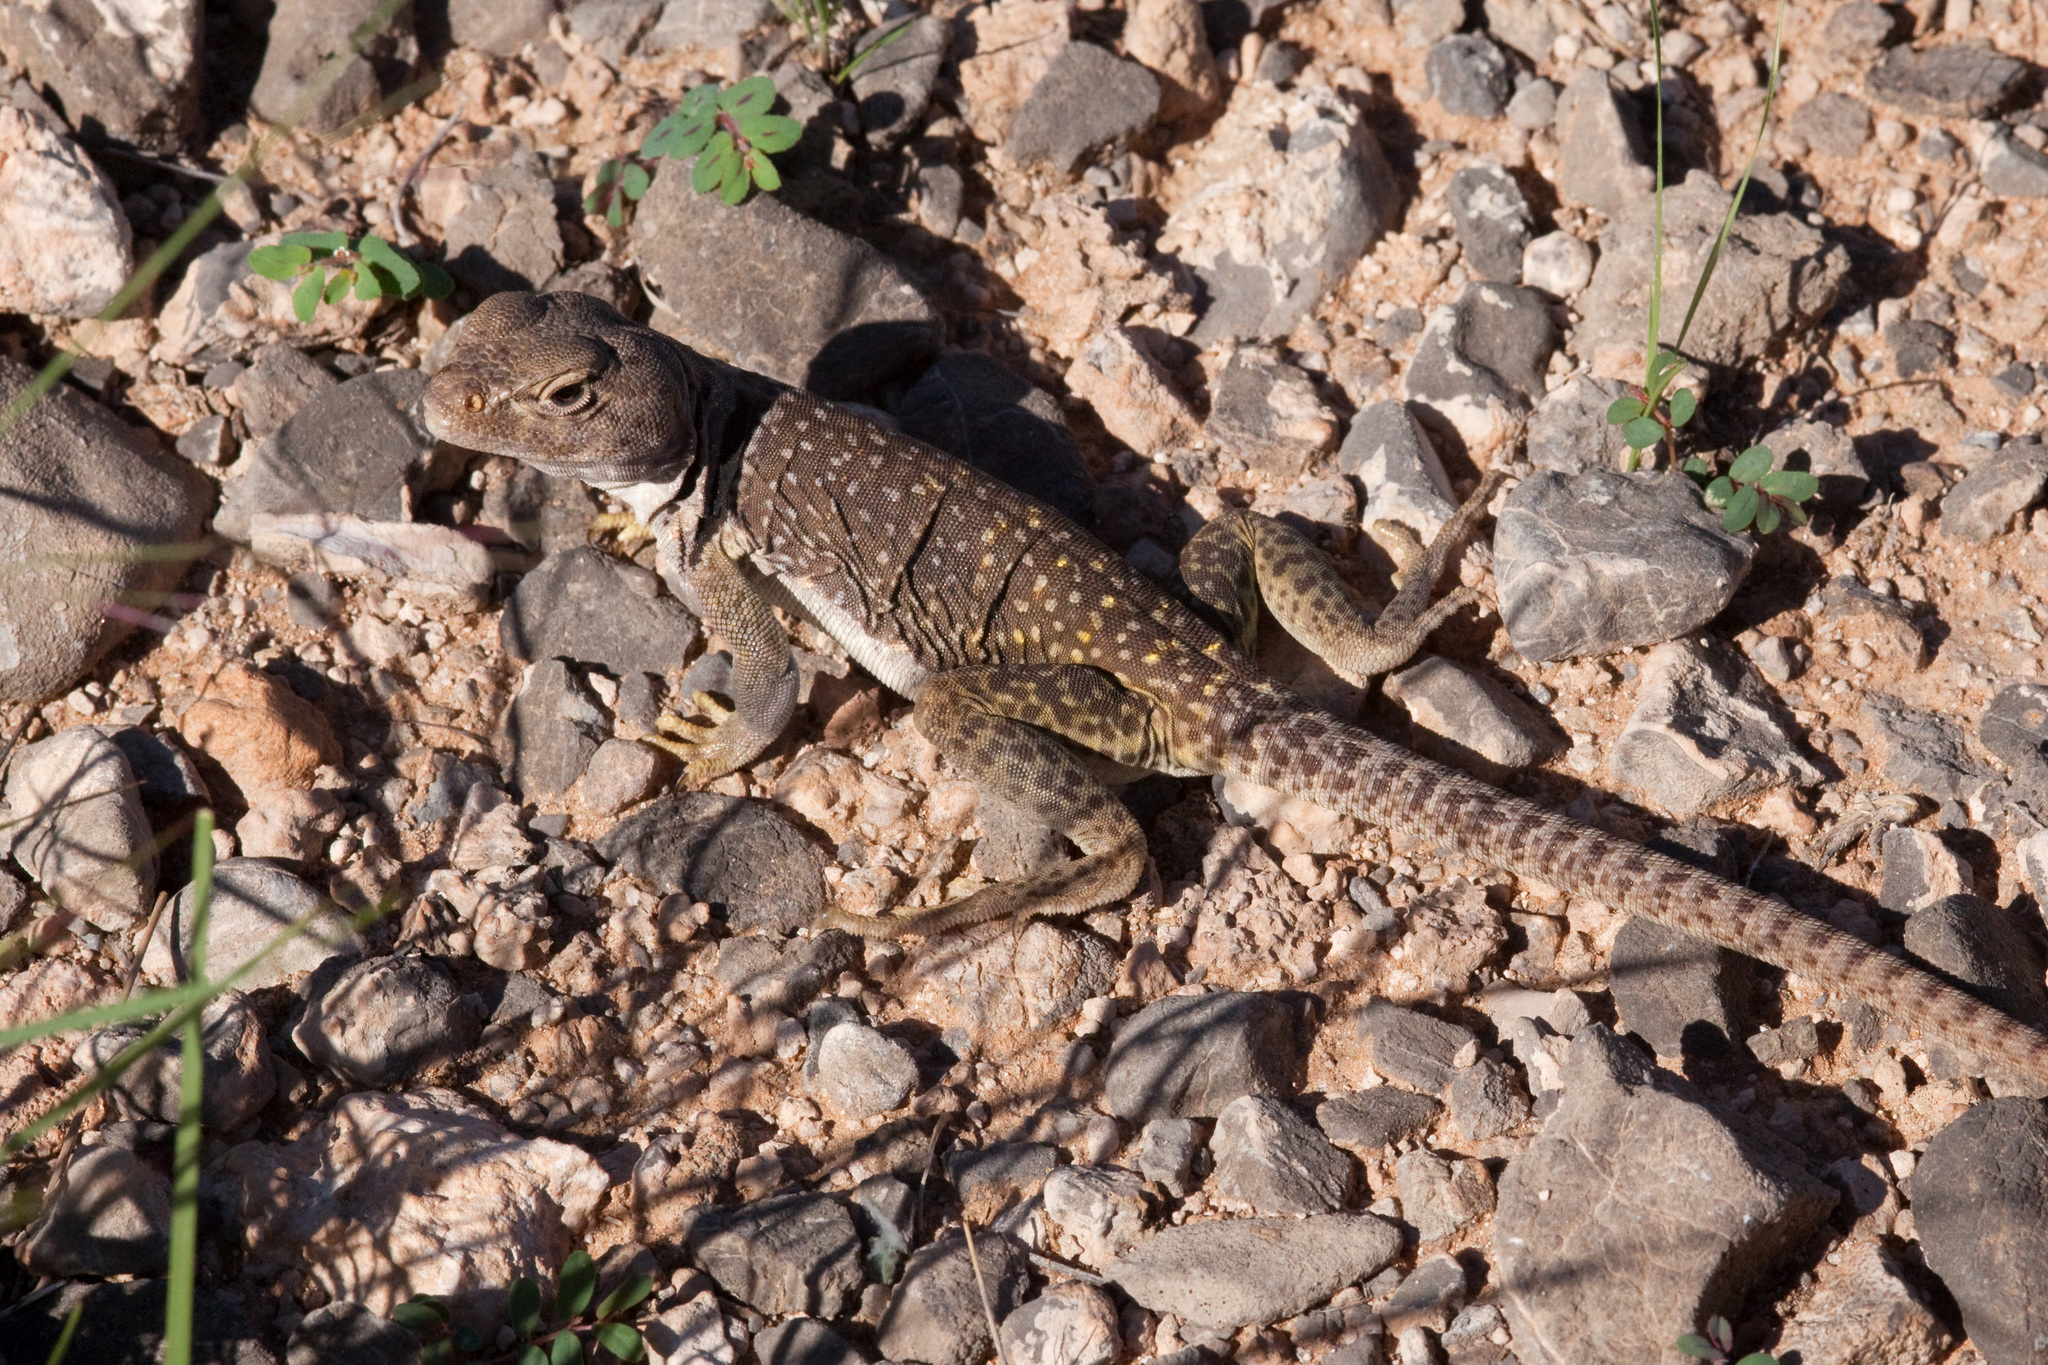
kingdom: Animalia
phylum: Chordata
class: Squamata
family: Crotaphytidae
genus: Crotaphytus
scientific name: Crotaphytus collaris
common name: Collared lizard
